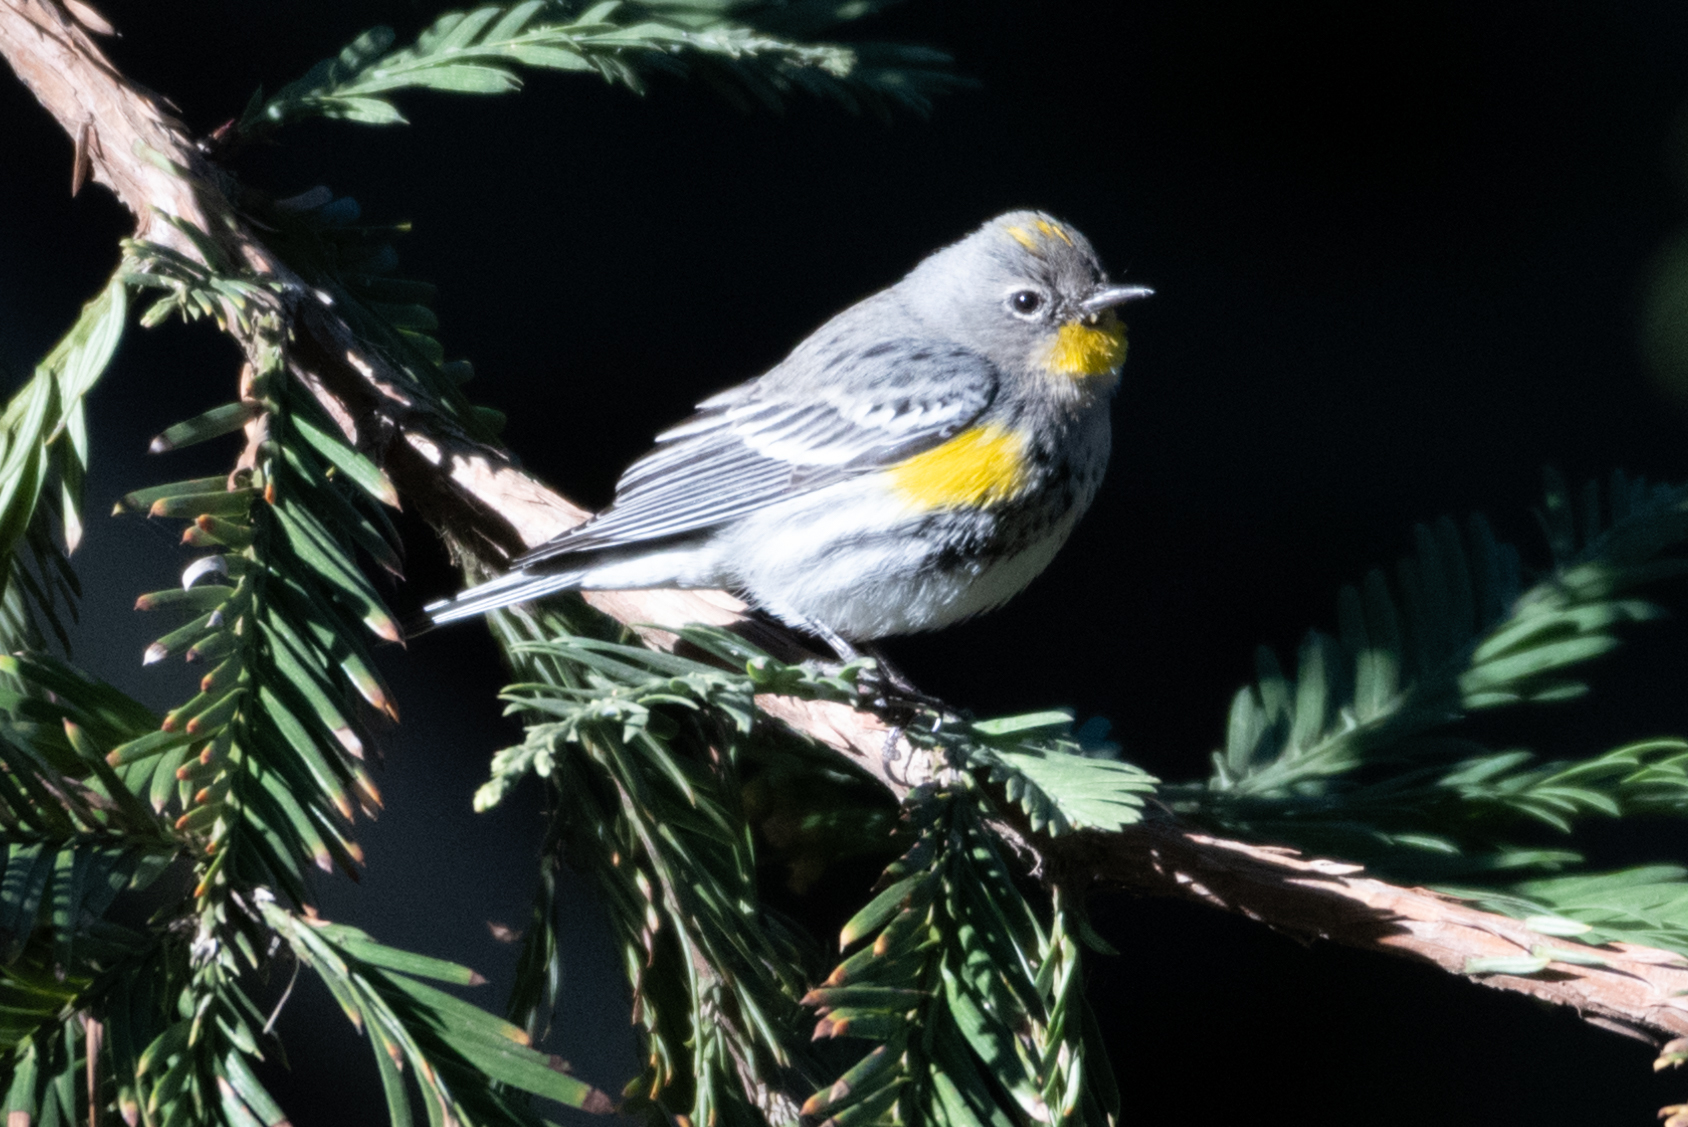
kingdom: Animalia
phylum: Chordata
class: Aves
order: Passeriformes
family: Parulidae
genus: Setophaga
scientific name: Setophaga coronata
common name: Myrtle warbler
